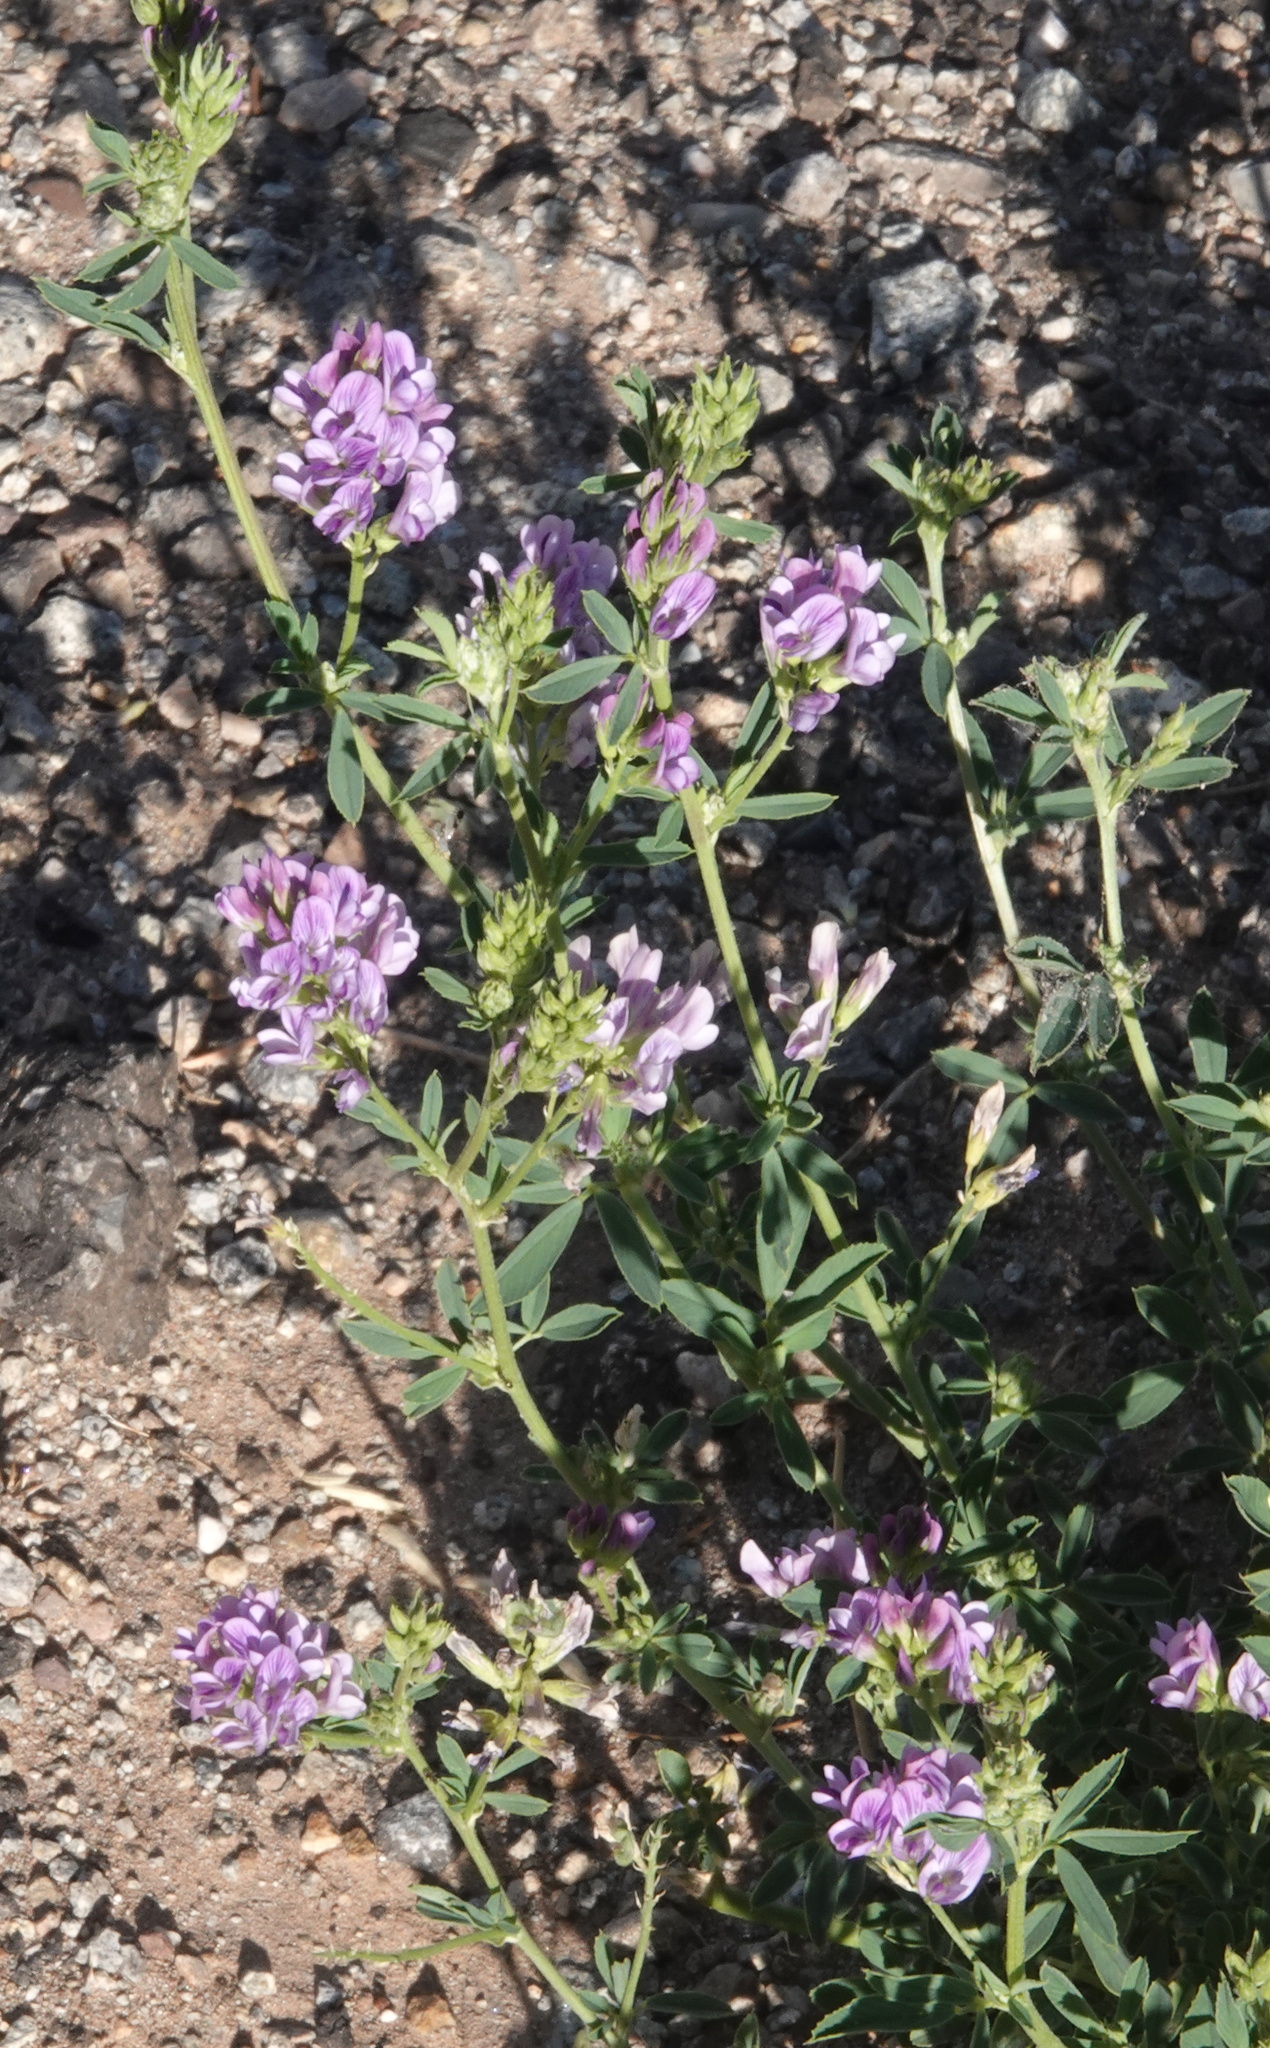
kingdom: Plantae
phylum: Tracheophyta
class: Magnoliopsida
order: Fabales
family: Fabaceae
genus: Medicago
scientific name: Medicago sativa
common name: Alfalfa
